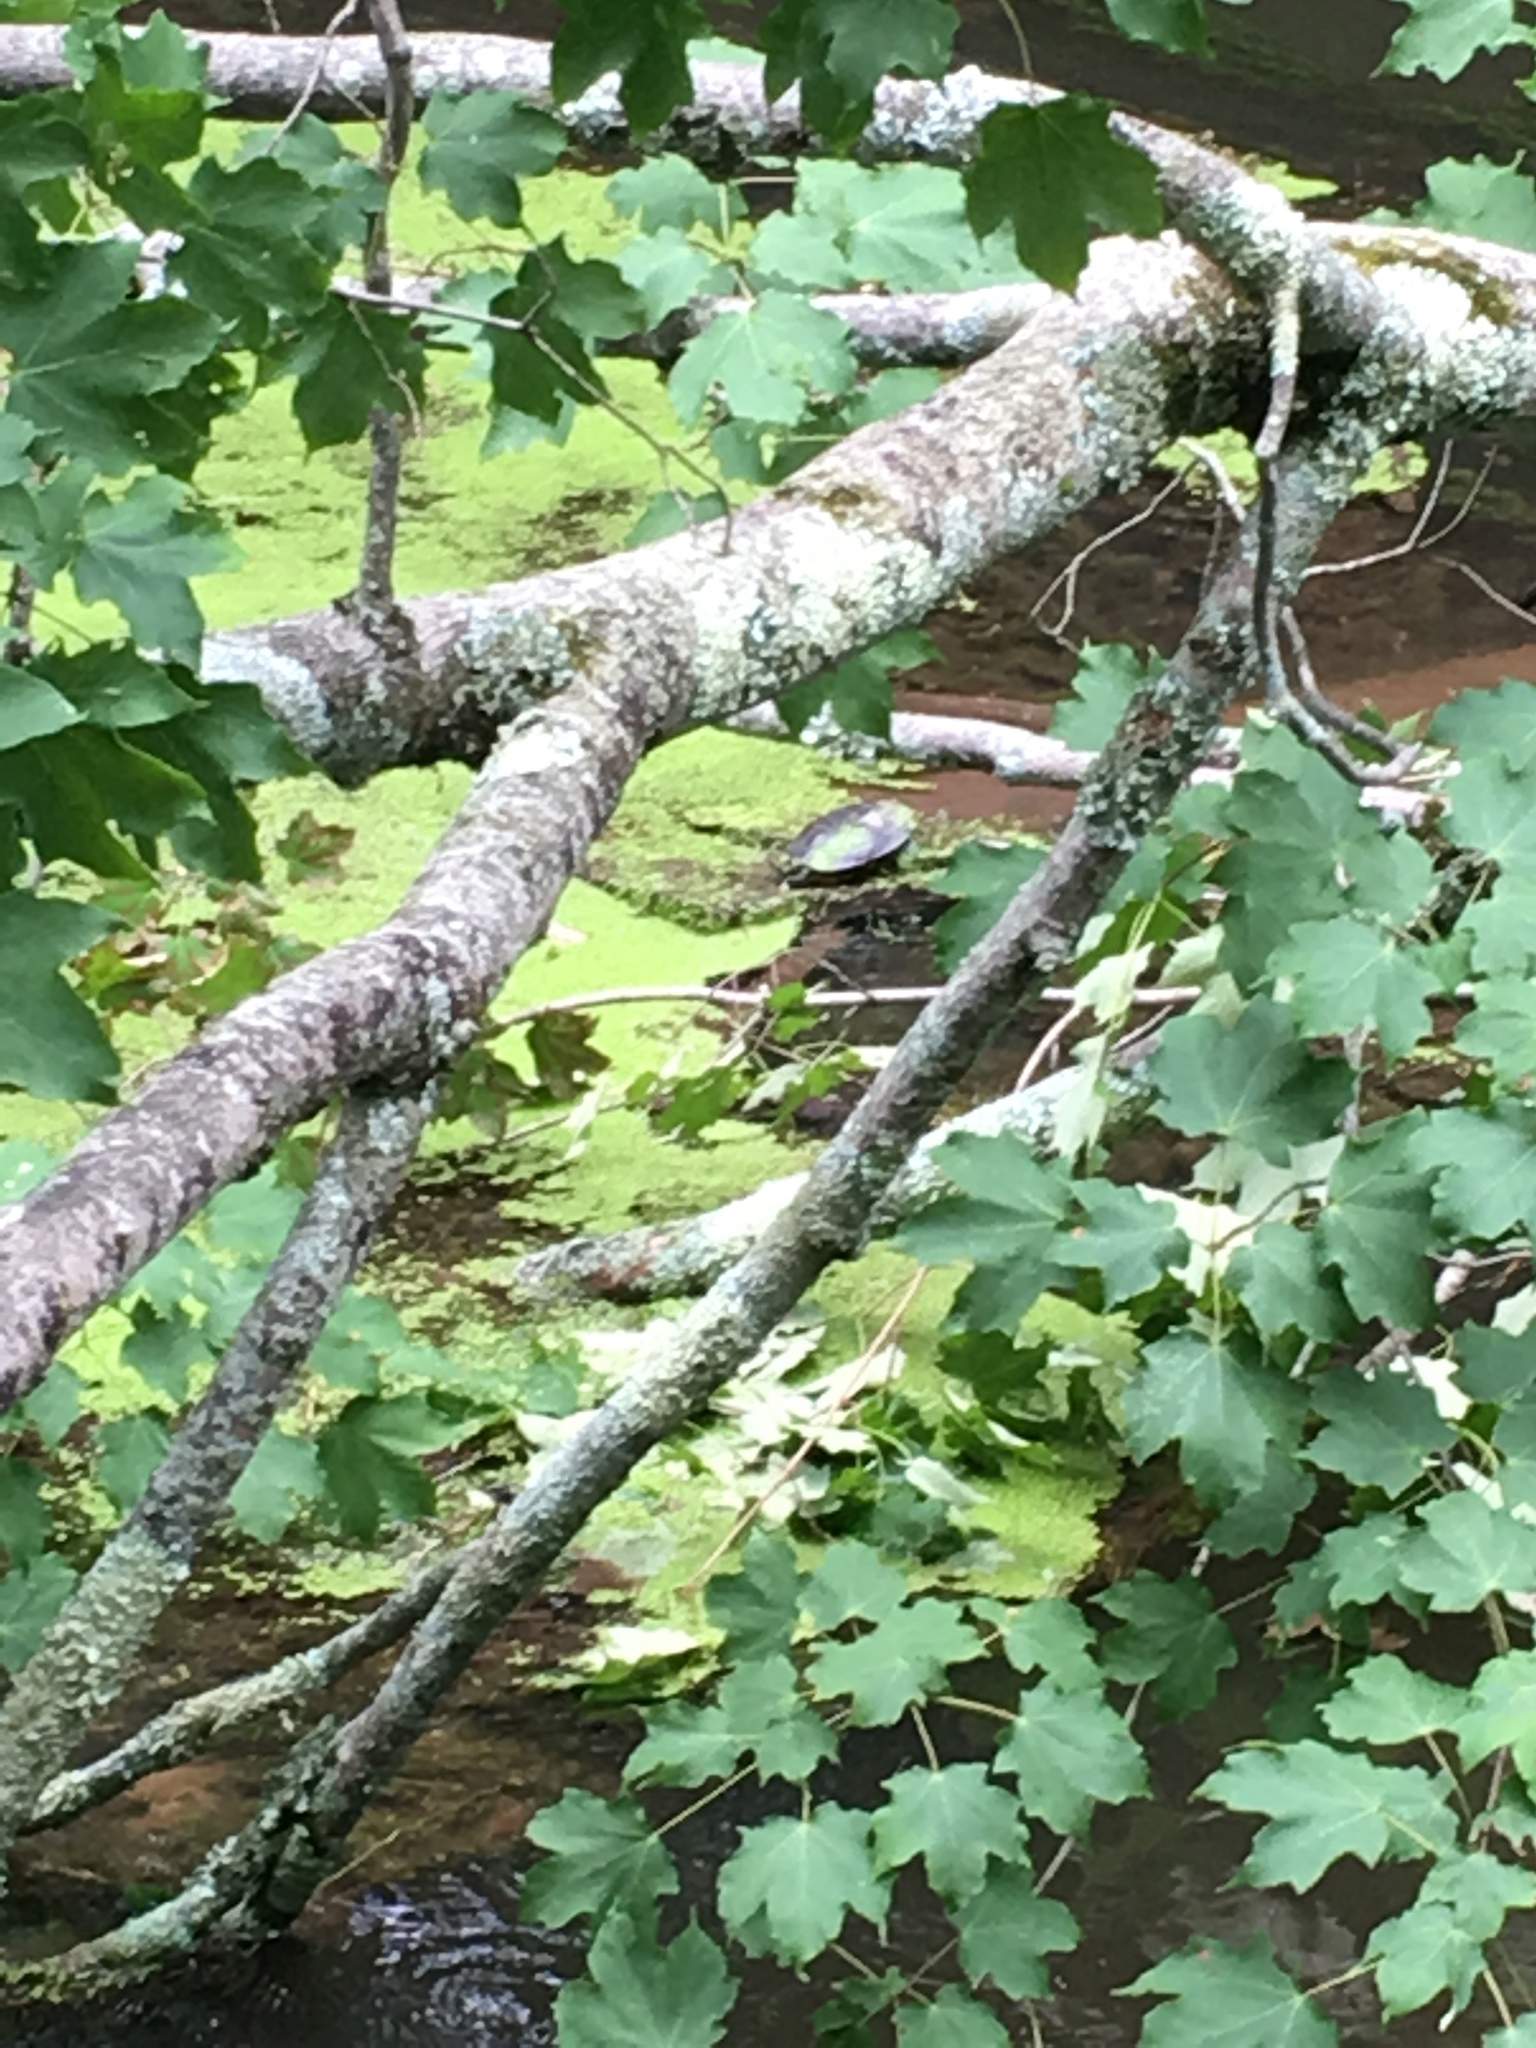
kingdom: Animalia
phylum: Chordata
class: Testudines
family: Emydidae
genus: Chrysemys
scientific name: Chrysemys picta
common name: Painted turtle
